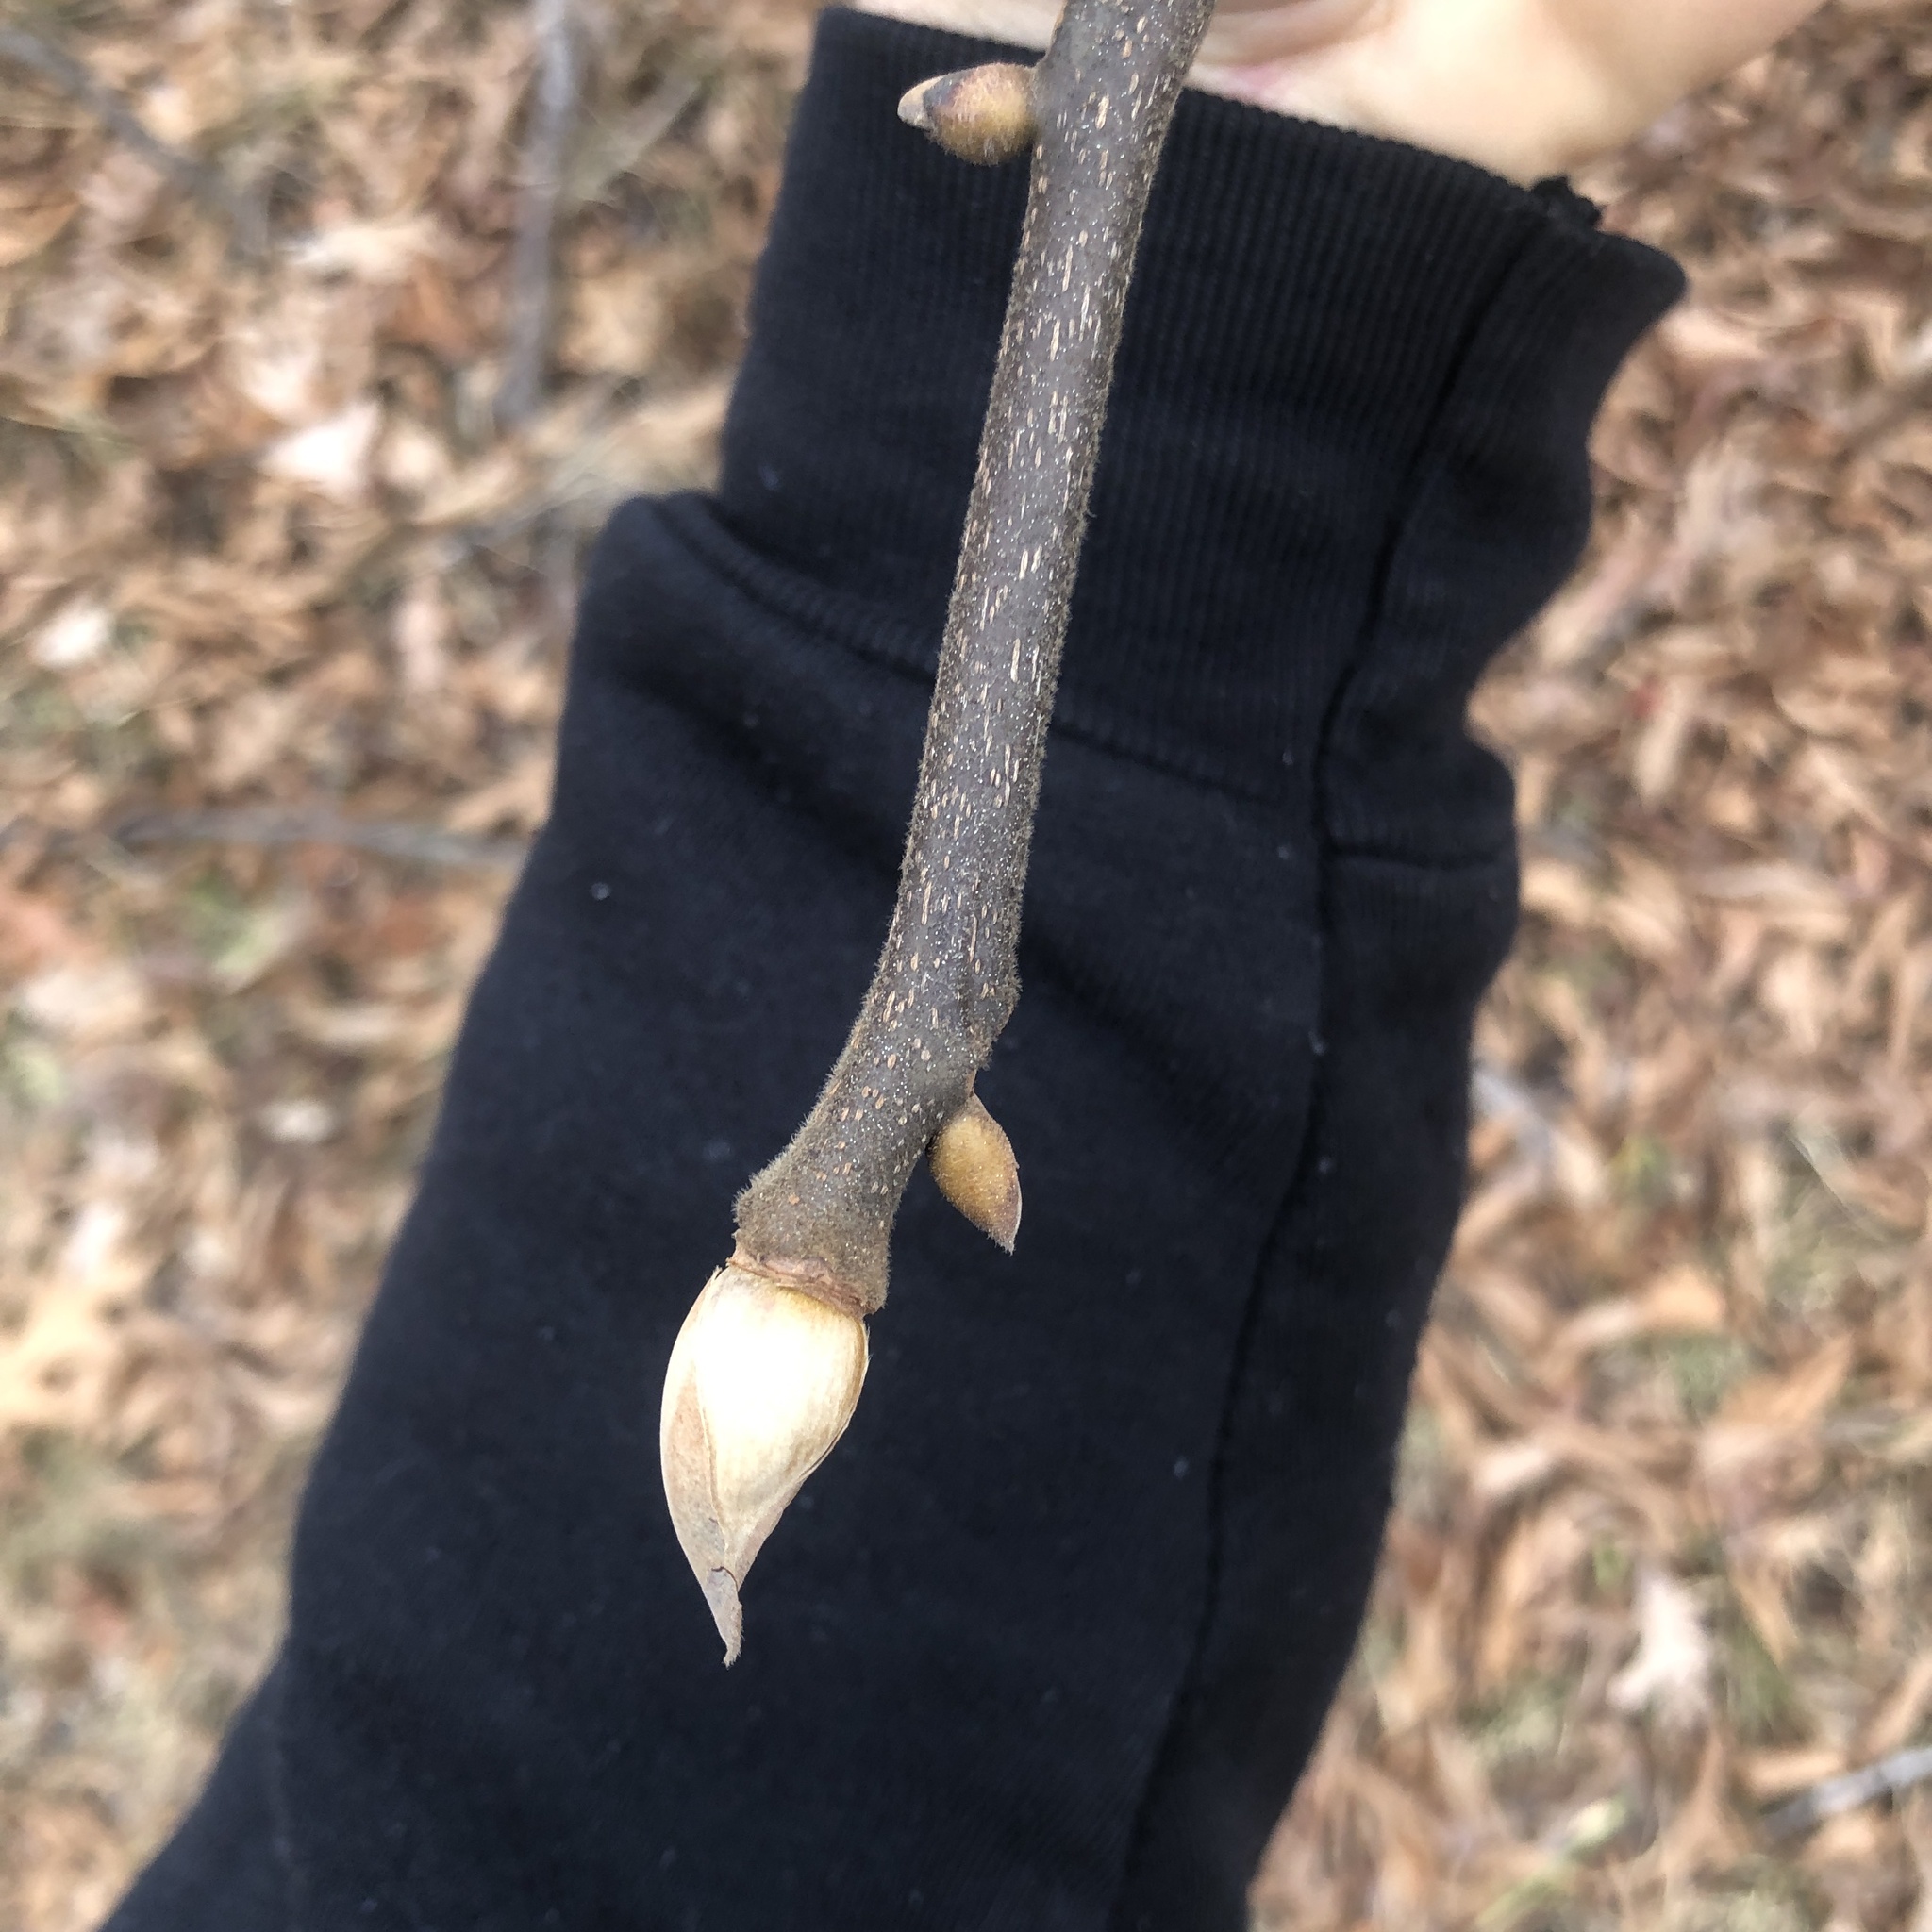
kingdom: Plantae
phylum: Tracheophyta
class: Magnoliopsida
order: Fagales
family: Juglandaceae
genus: Carya
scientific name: Carya alba
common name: Mockernut hickory
